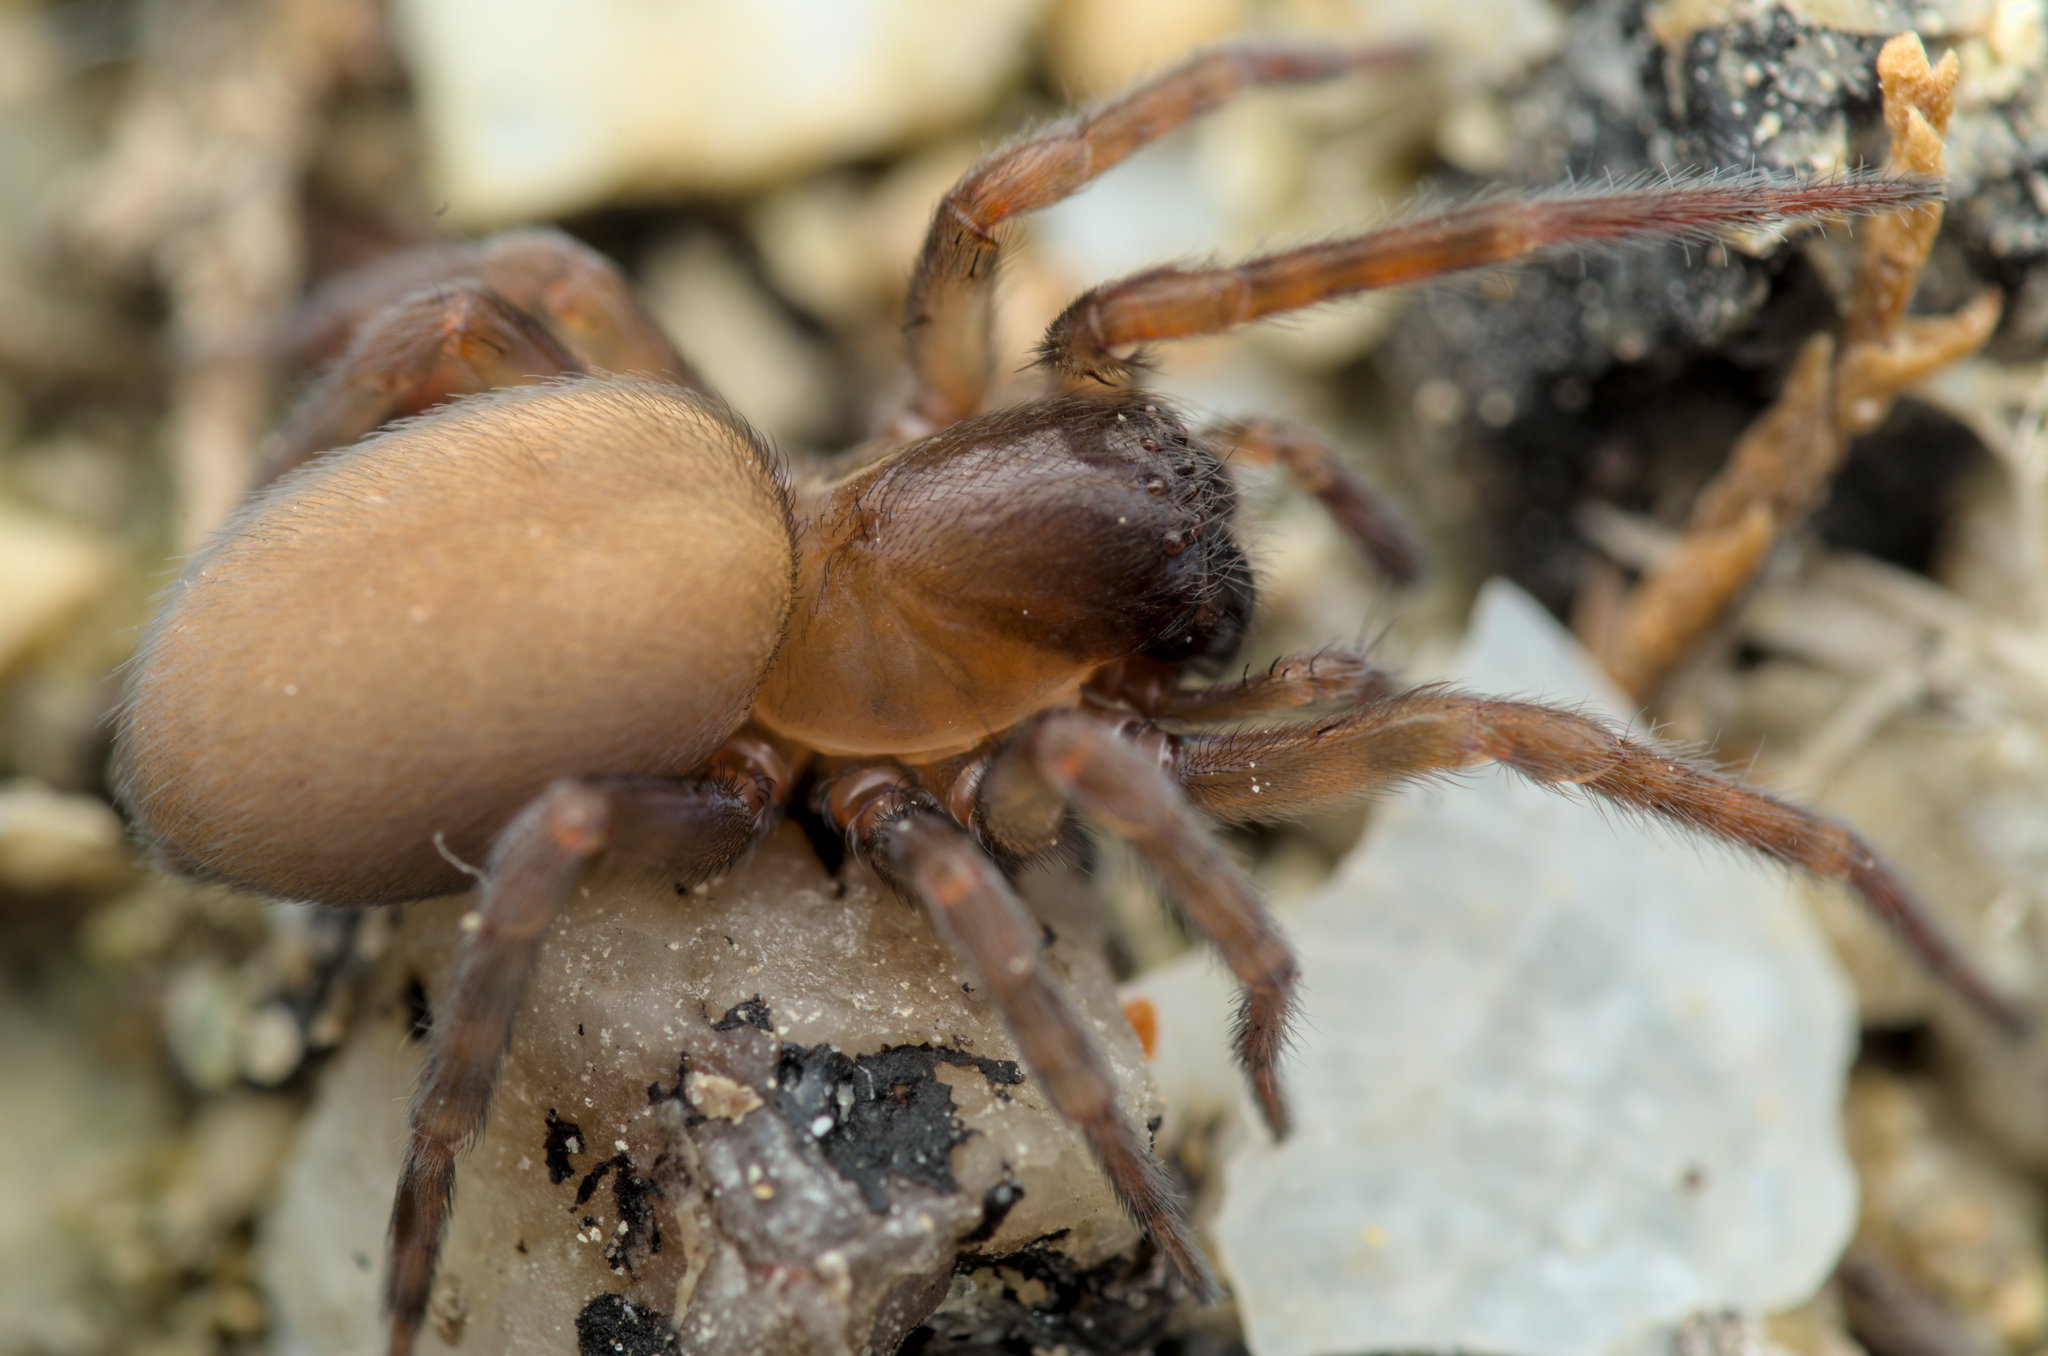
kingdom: Animalia
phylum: Arthropoda
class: Arachnida
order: Araneae
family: Amaurobiidae
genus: Amaurobius
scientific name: Amaurobius erberi
